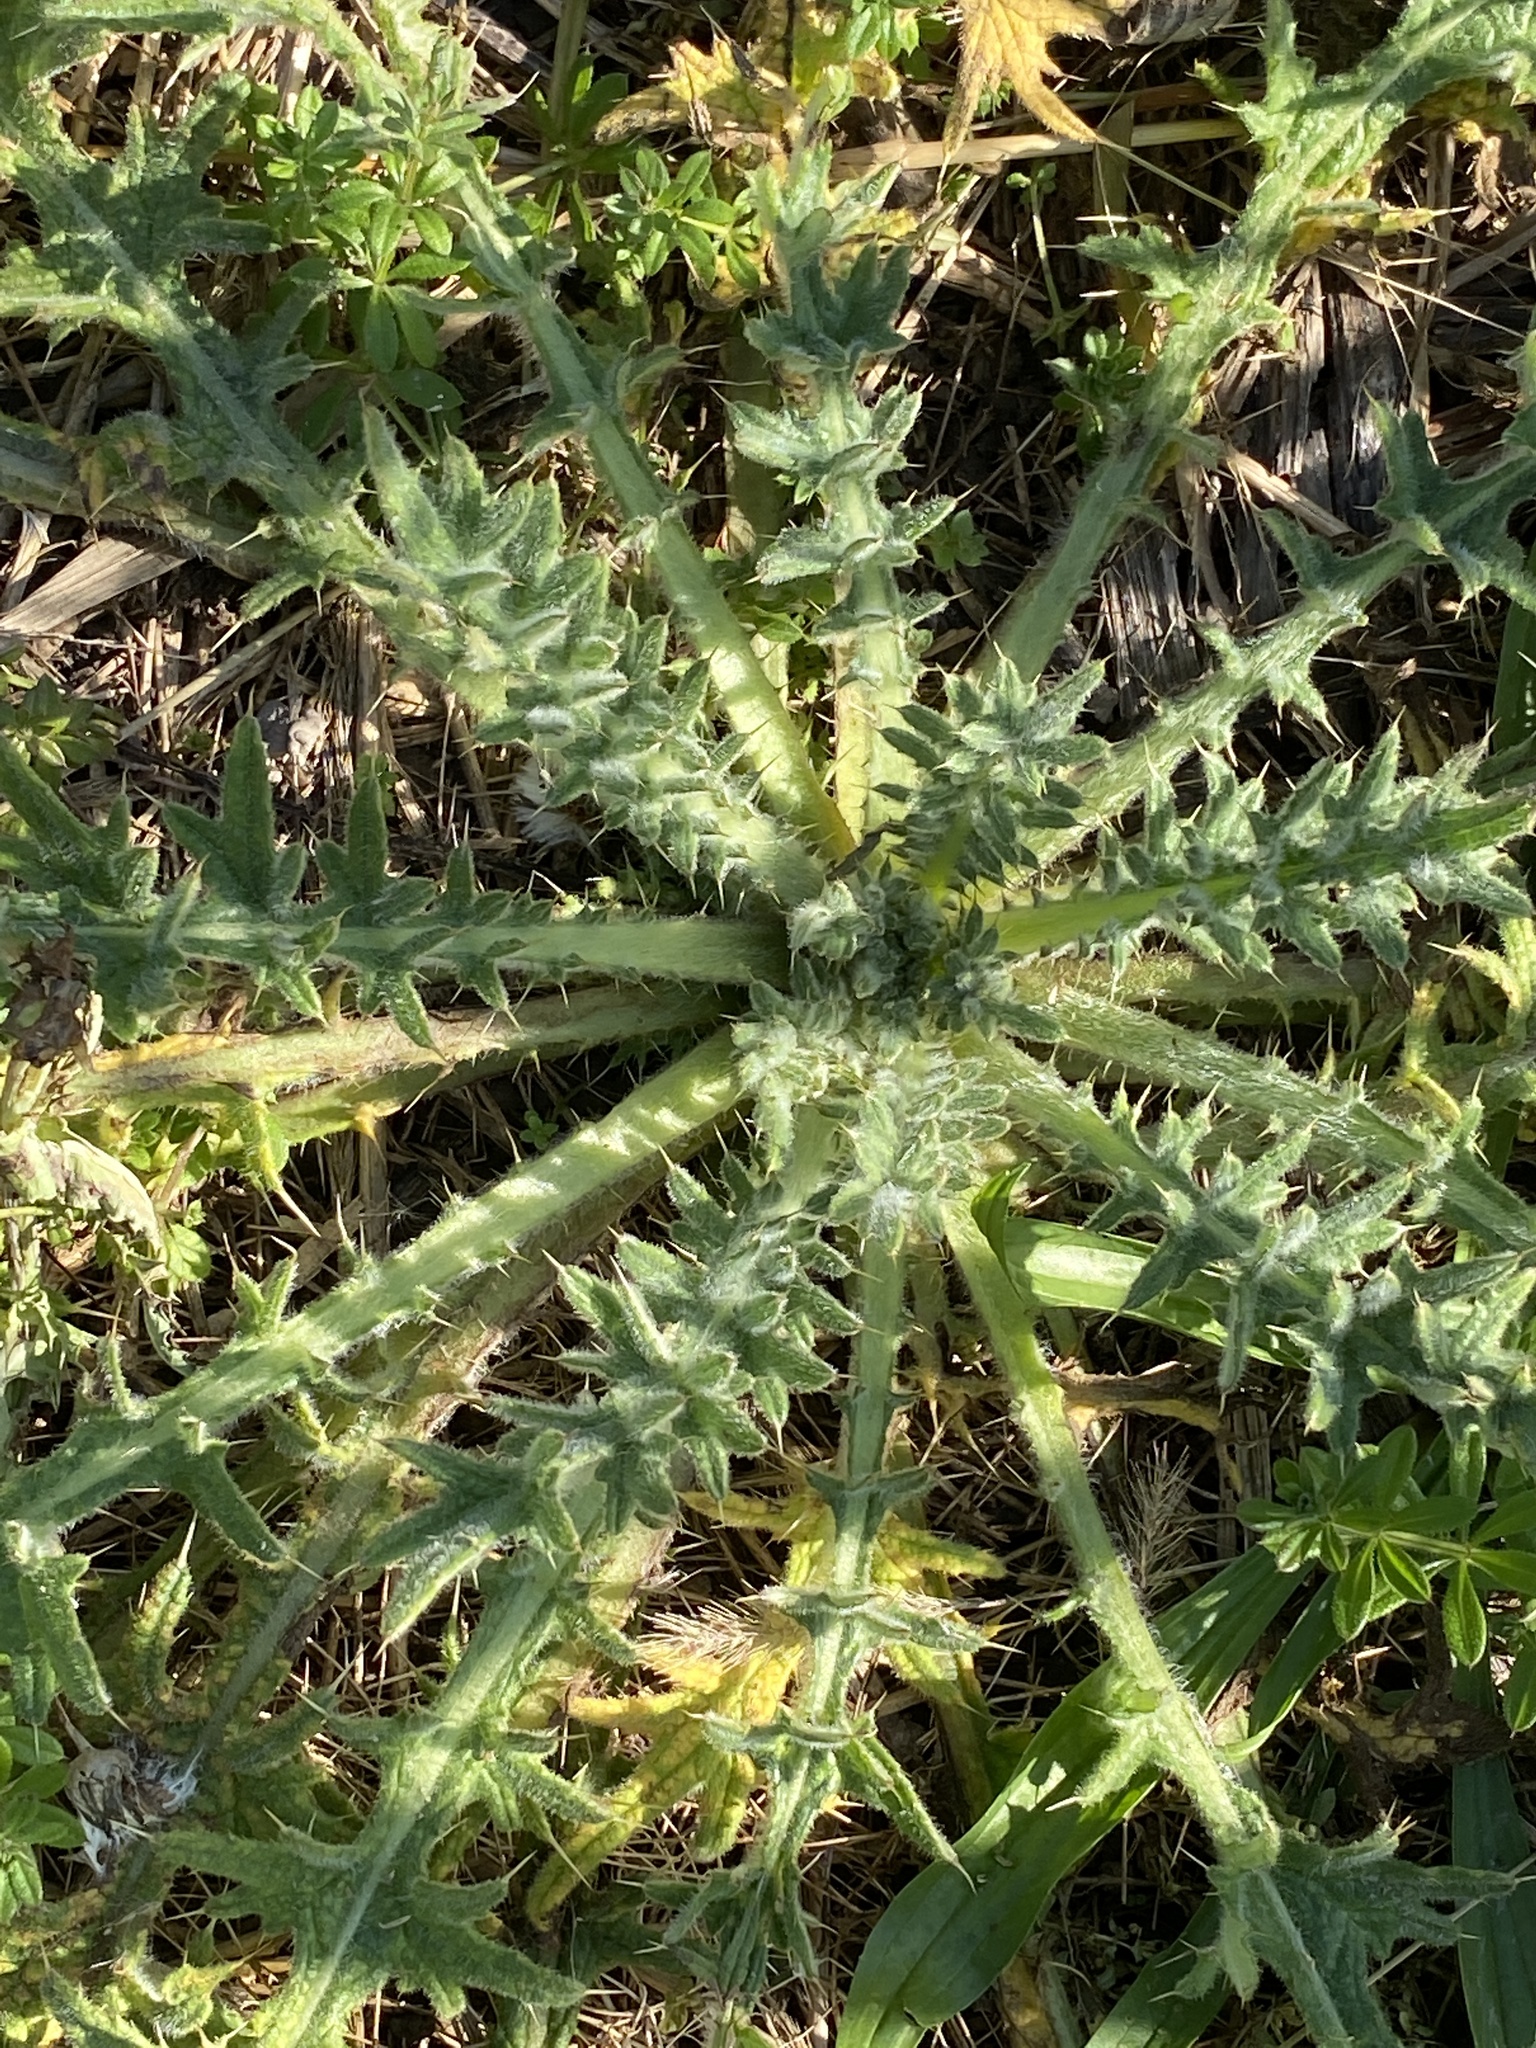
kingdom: Plantae
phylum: Tracheophyta
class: Magnoliopsida
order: Asterales
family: Asteraceae
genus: Cirsium
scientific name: Cirsium vulgare
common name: Bull thistle
